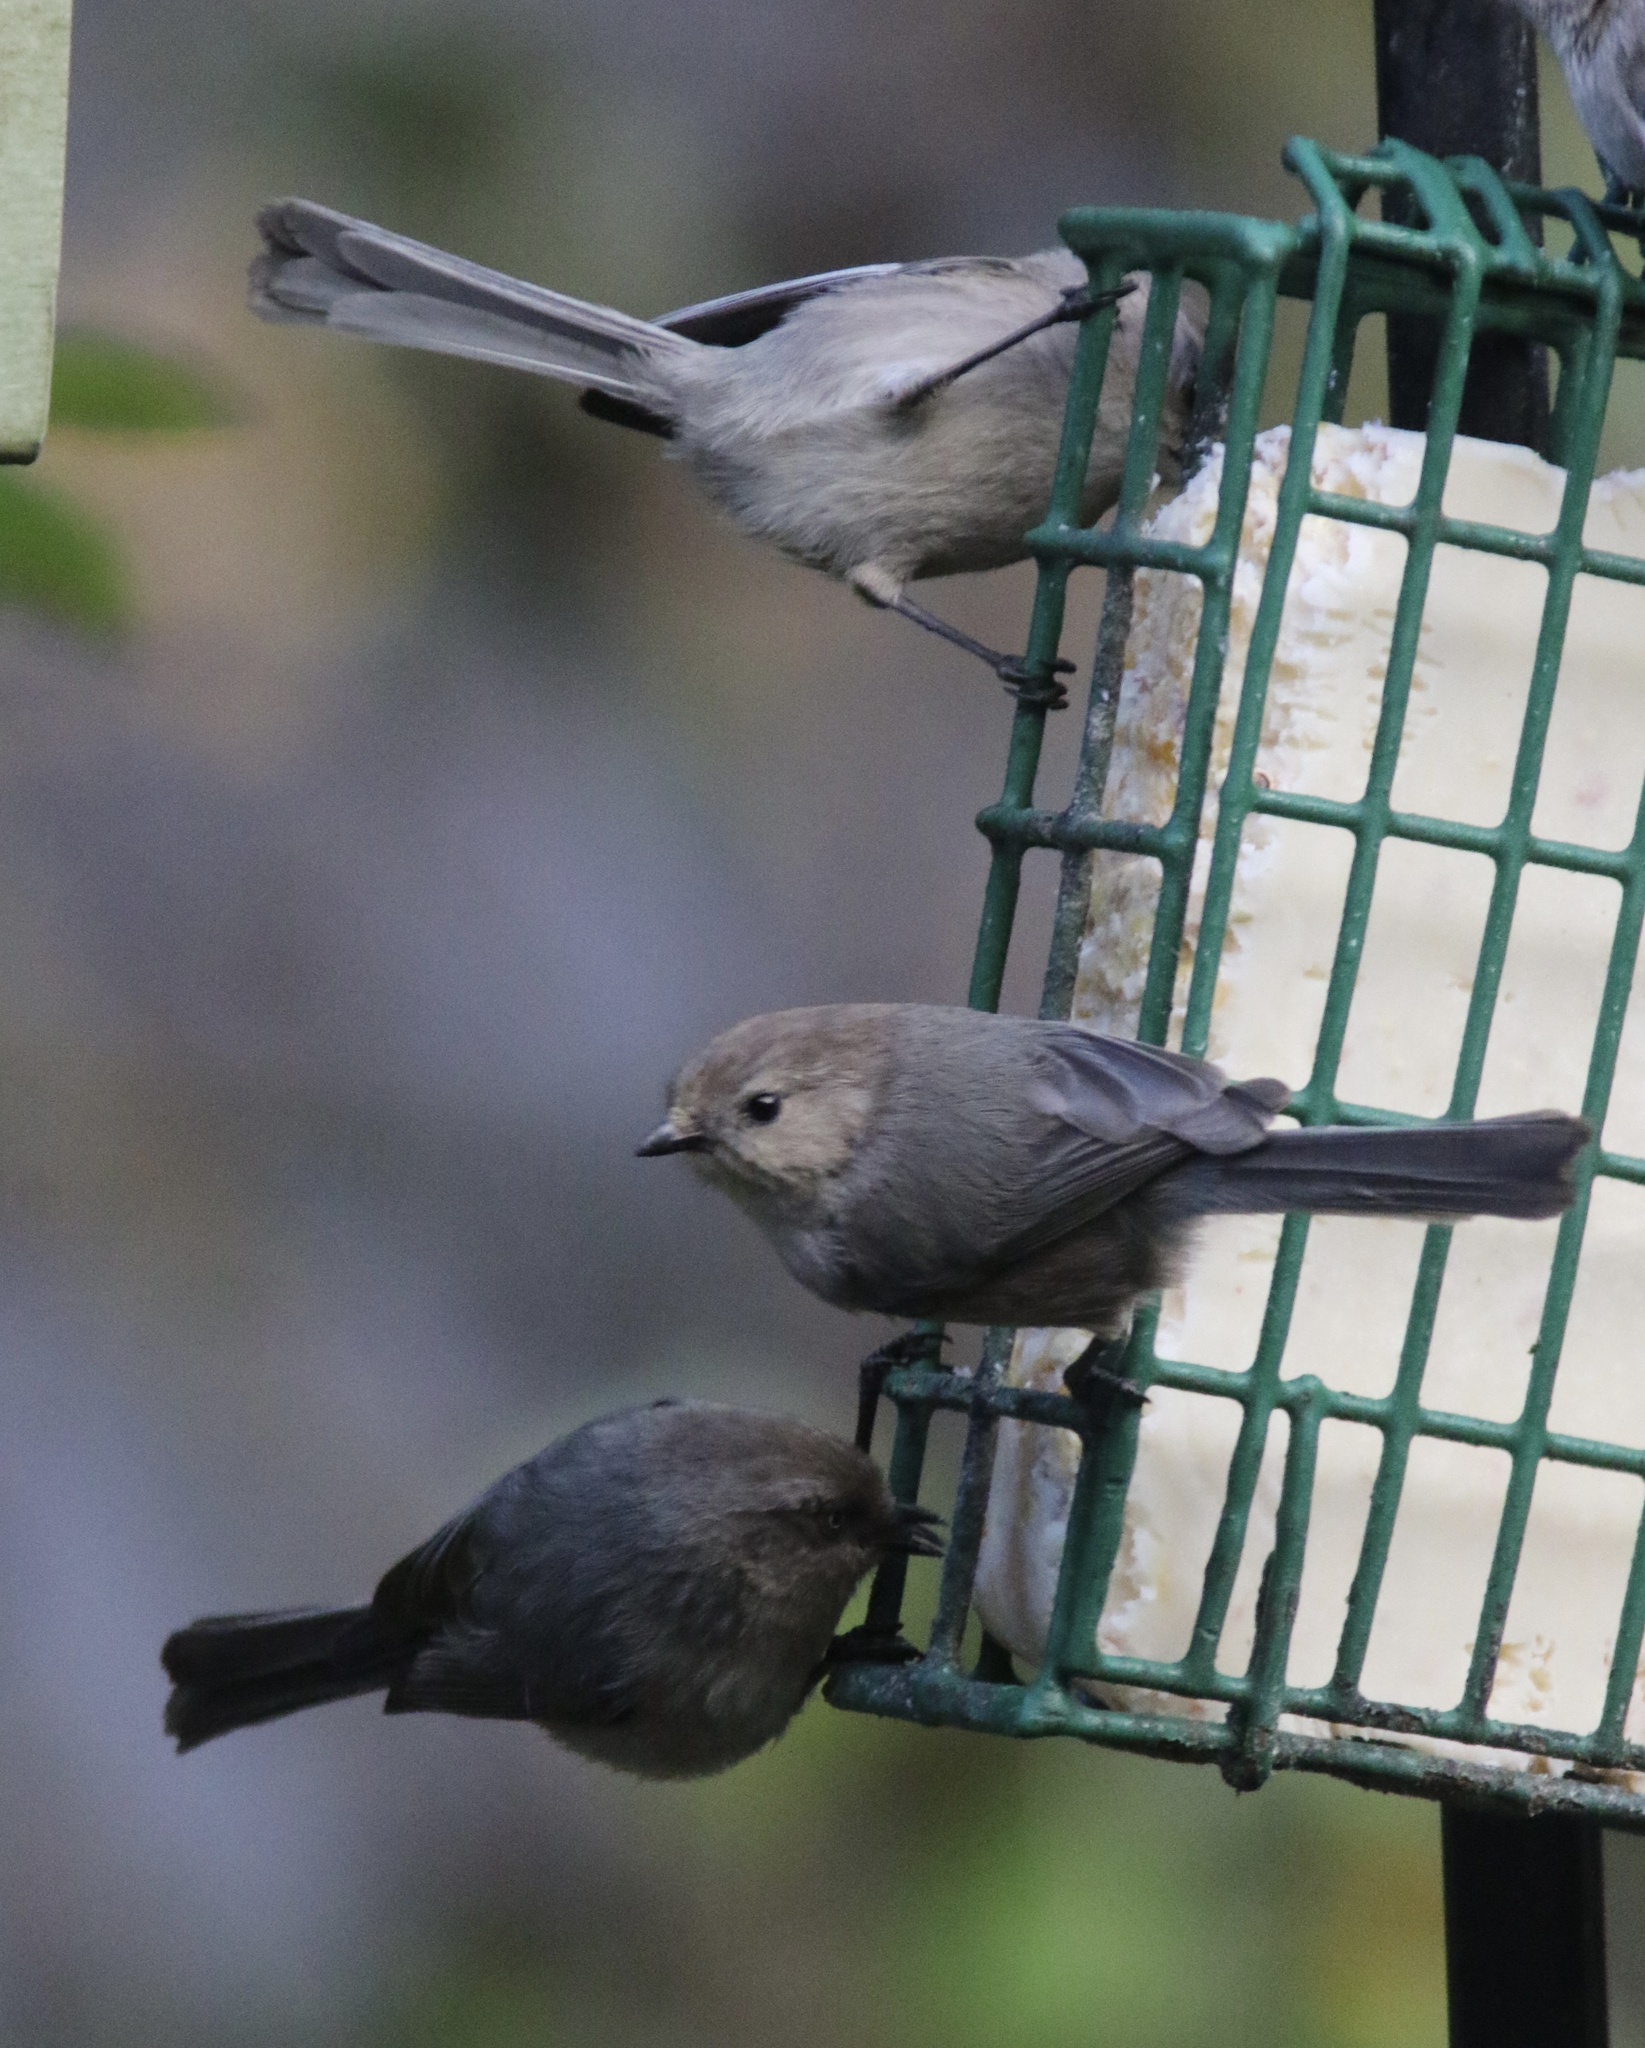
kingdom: Animalia
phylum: Chordata
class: Aves
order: Passeriformes
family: Aegithalidae
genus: Psaltriparus
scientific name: Psaltriparus minimus
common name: American bushtit
